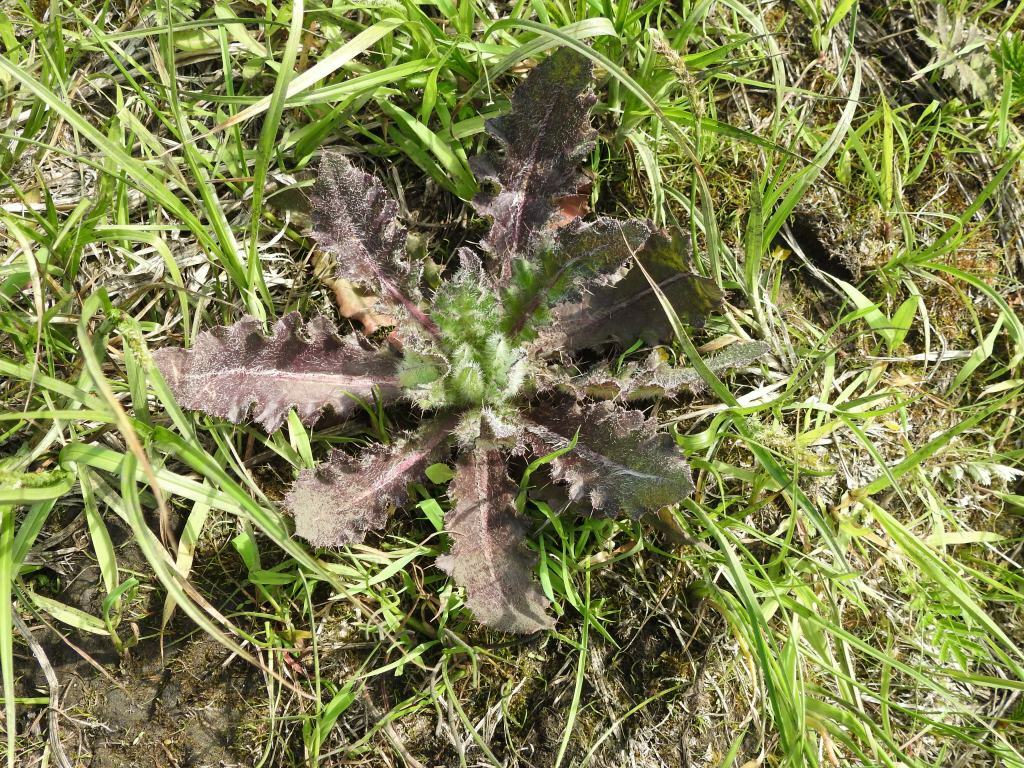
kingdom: Plantae
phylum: Tracheophyta
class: Magnoliopsida
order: Asterales
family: Asteraceae
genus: Cirsium
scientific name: Cirsium esculentum
